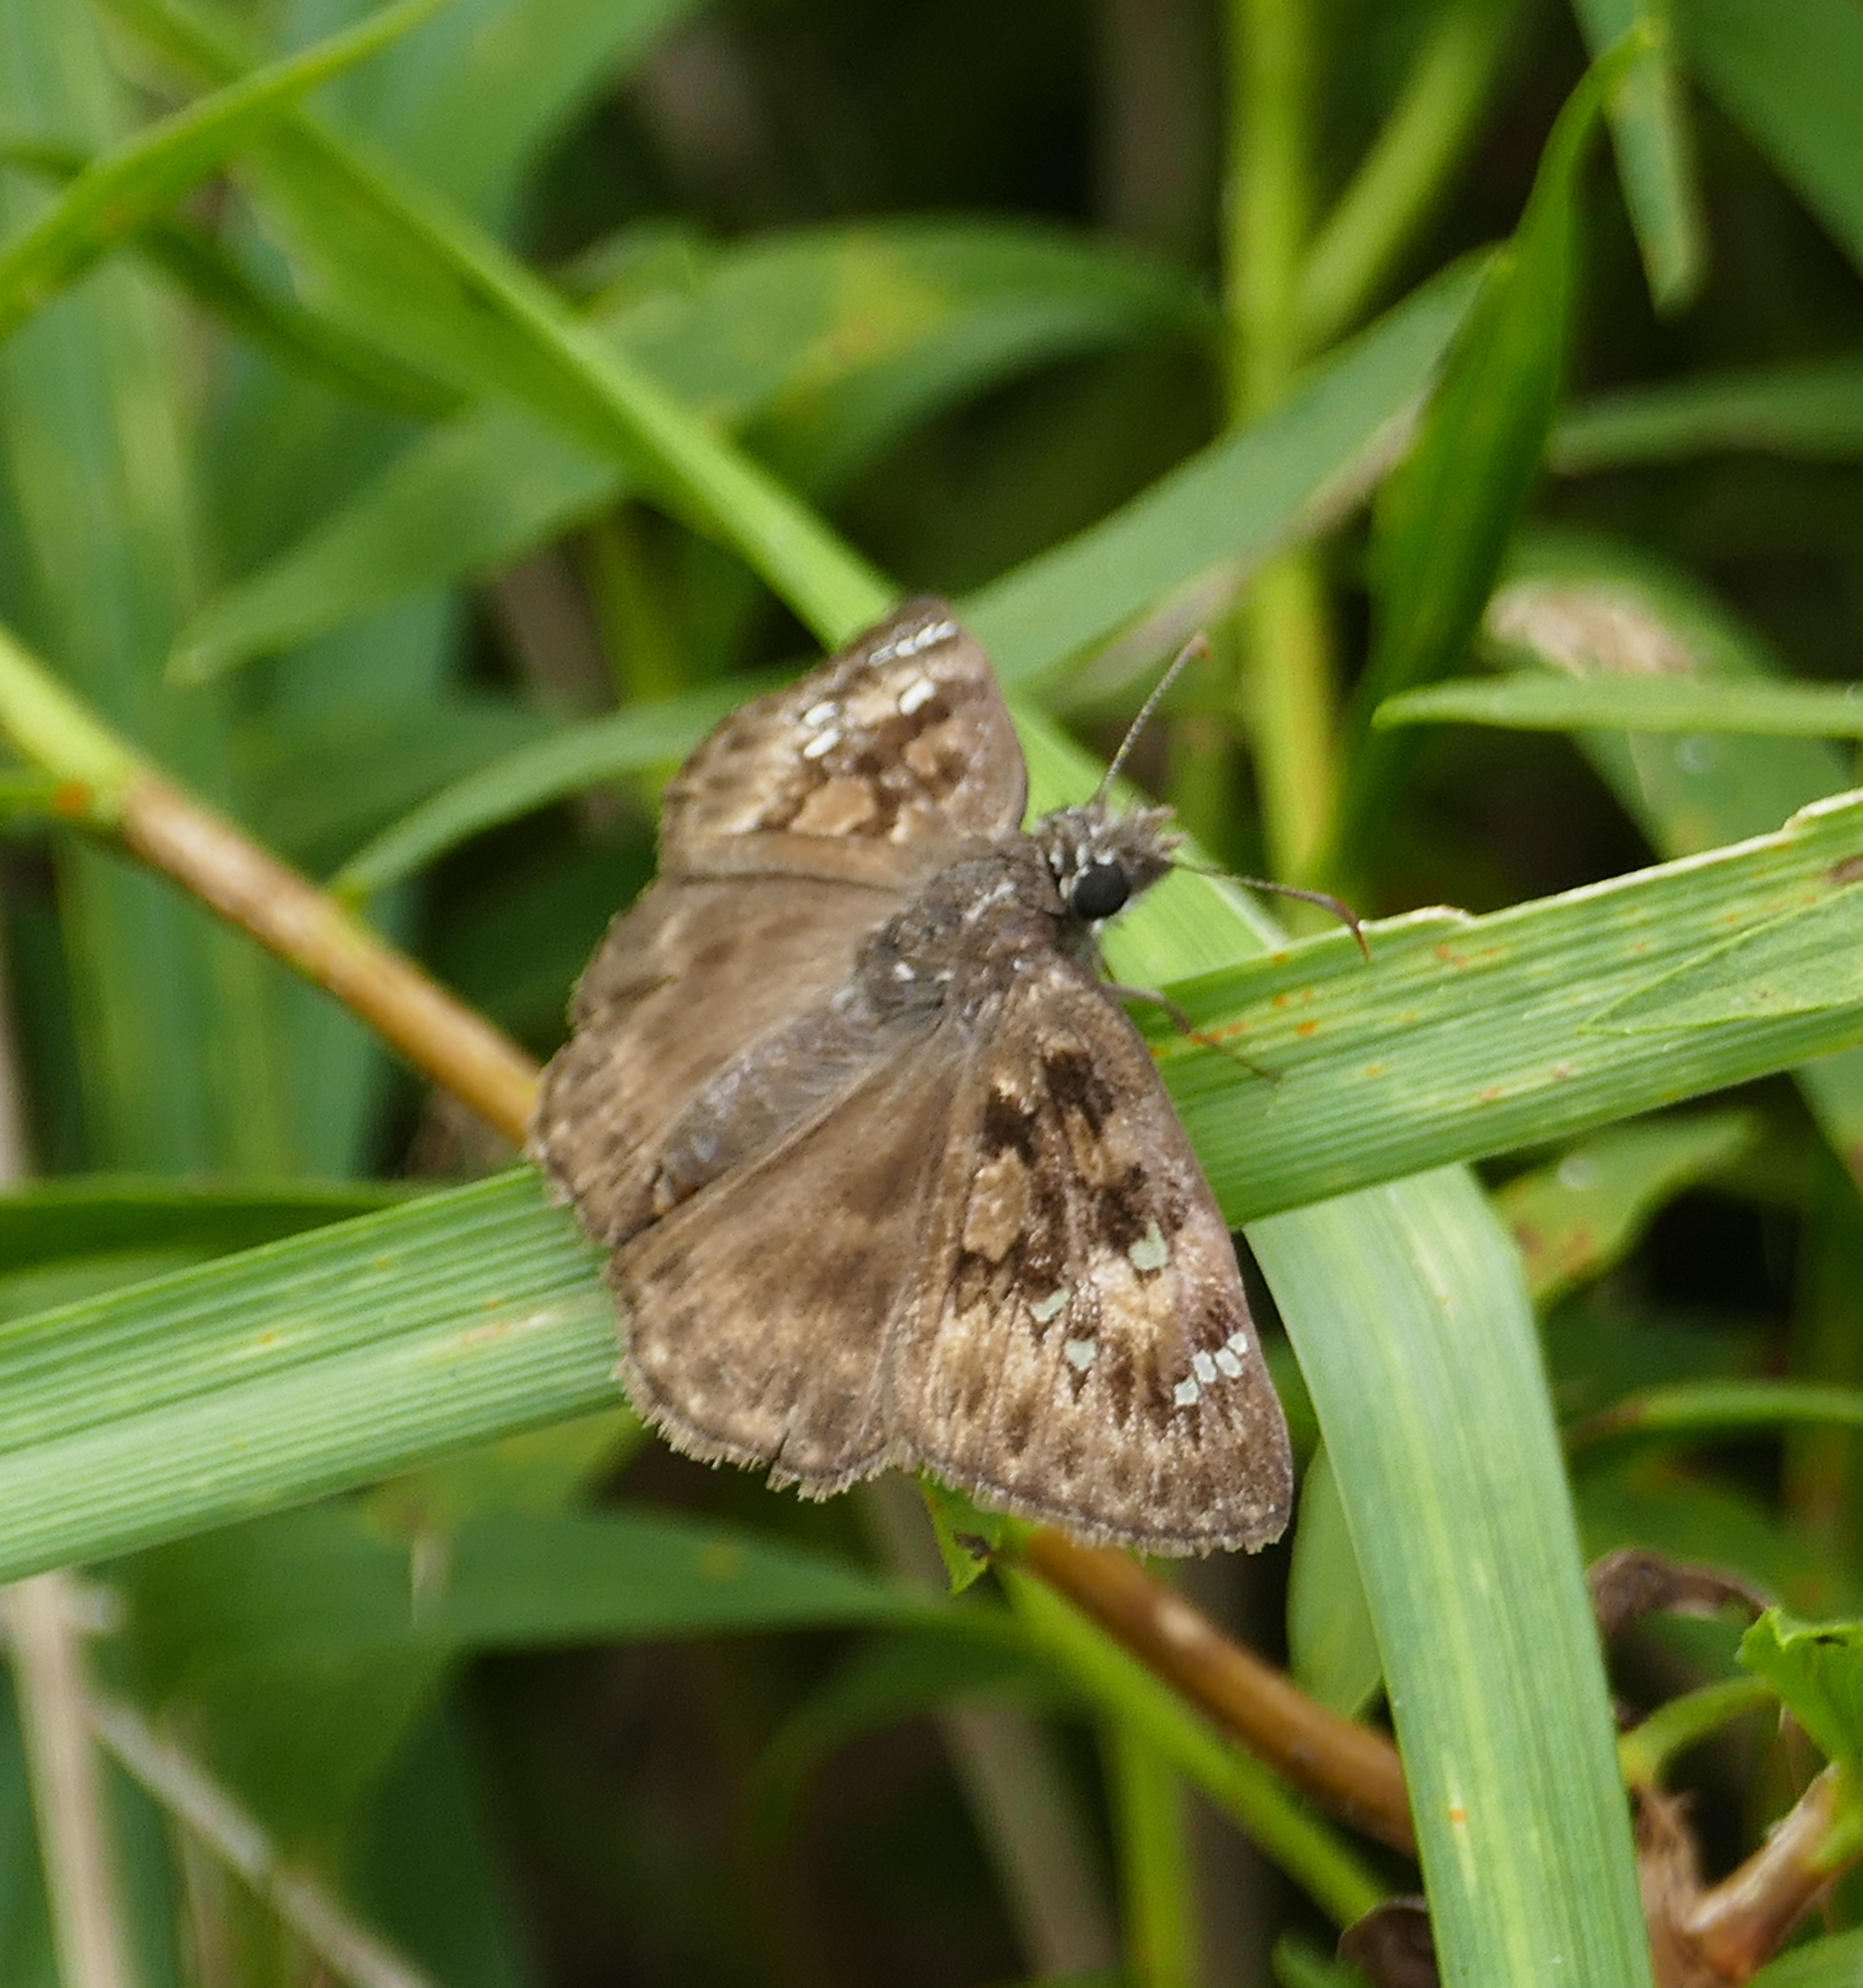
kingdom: Animalia
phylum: Arthropoda
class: Insecta
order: Lepidoptera
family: Hesperiidae
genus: Erynnis
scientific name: Erynnis horatius
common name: Horace's duskywing
